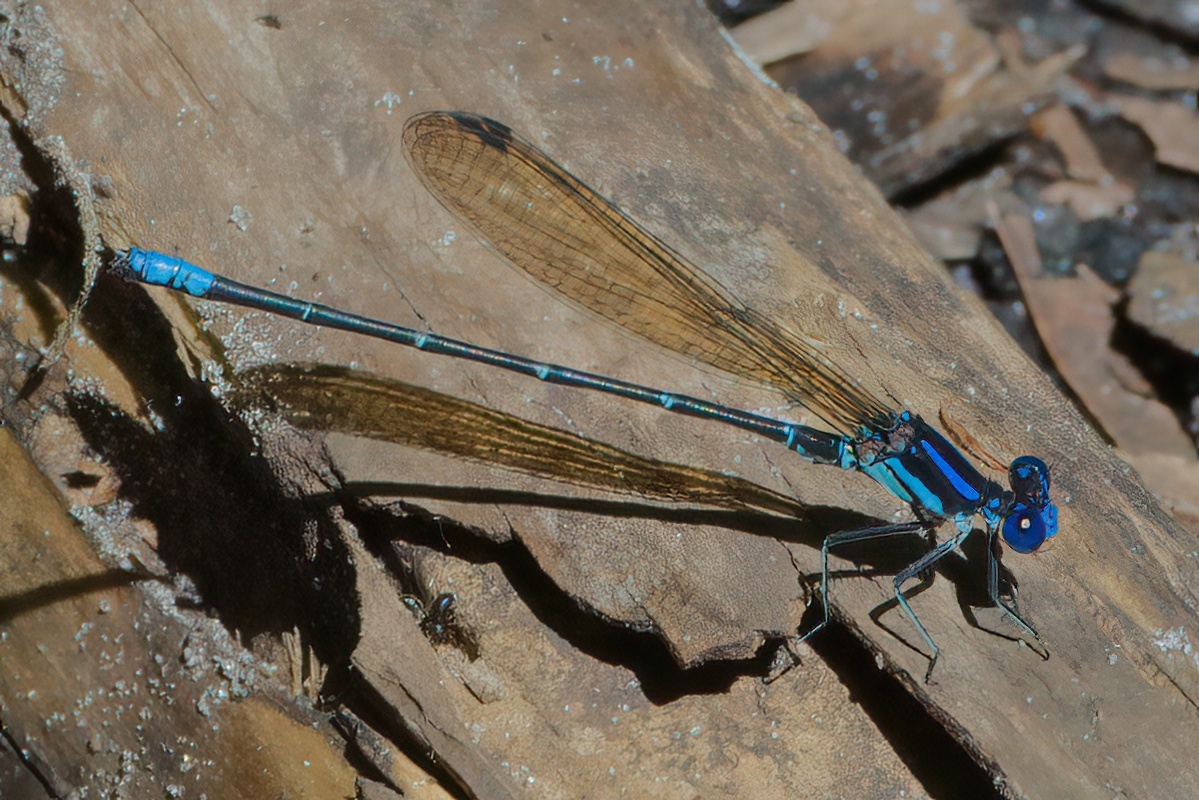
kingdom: Animalia
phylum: Arthropoda
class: Insecta
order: Odonata
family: Coenagrionidae
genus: Argia
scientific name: Argia sedula
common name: Blue-ringed dancer
